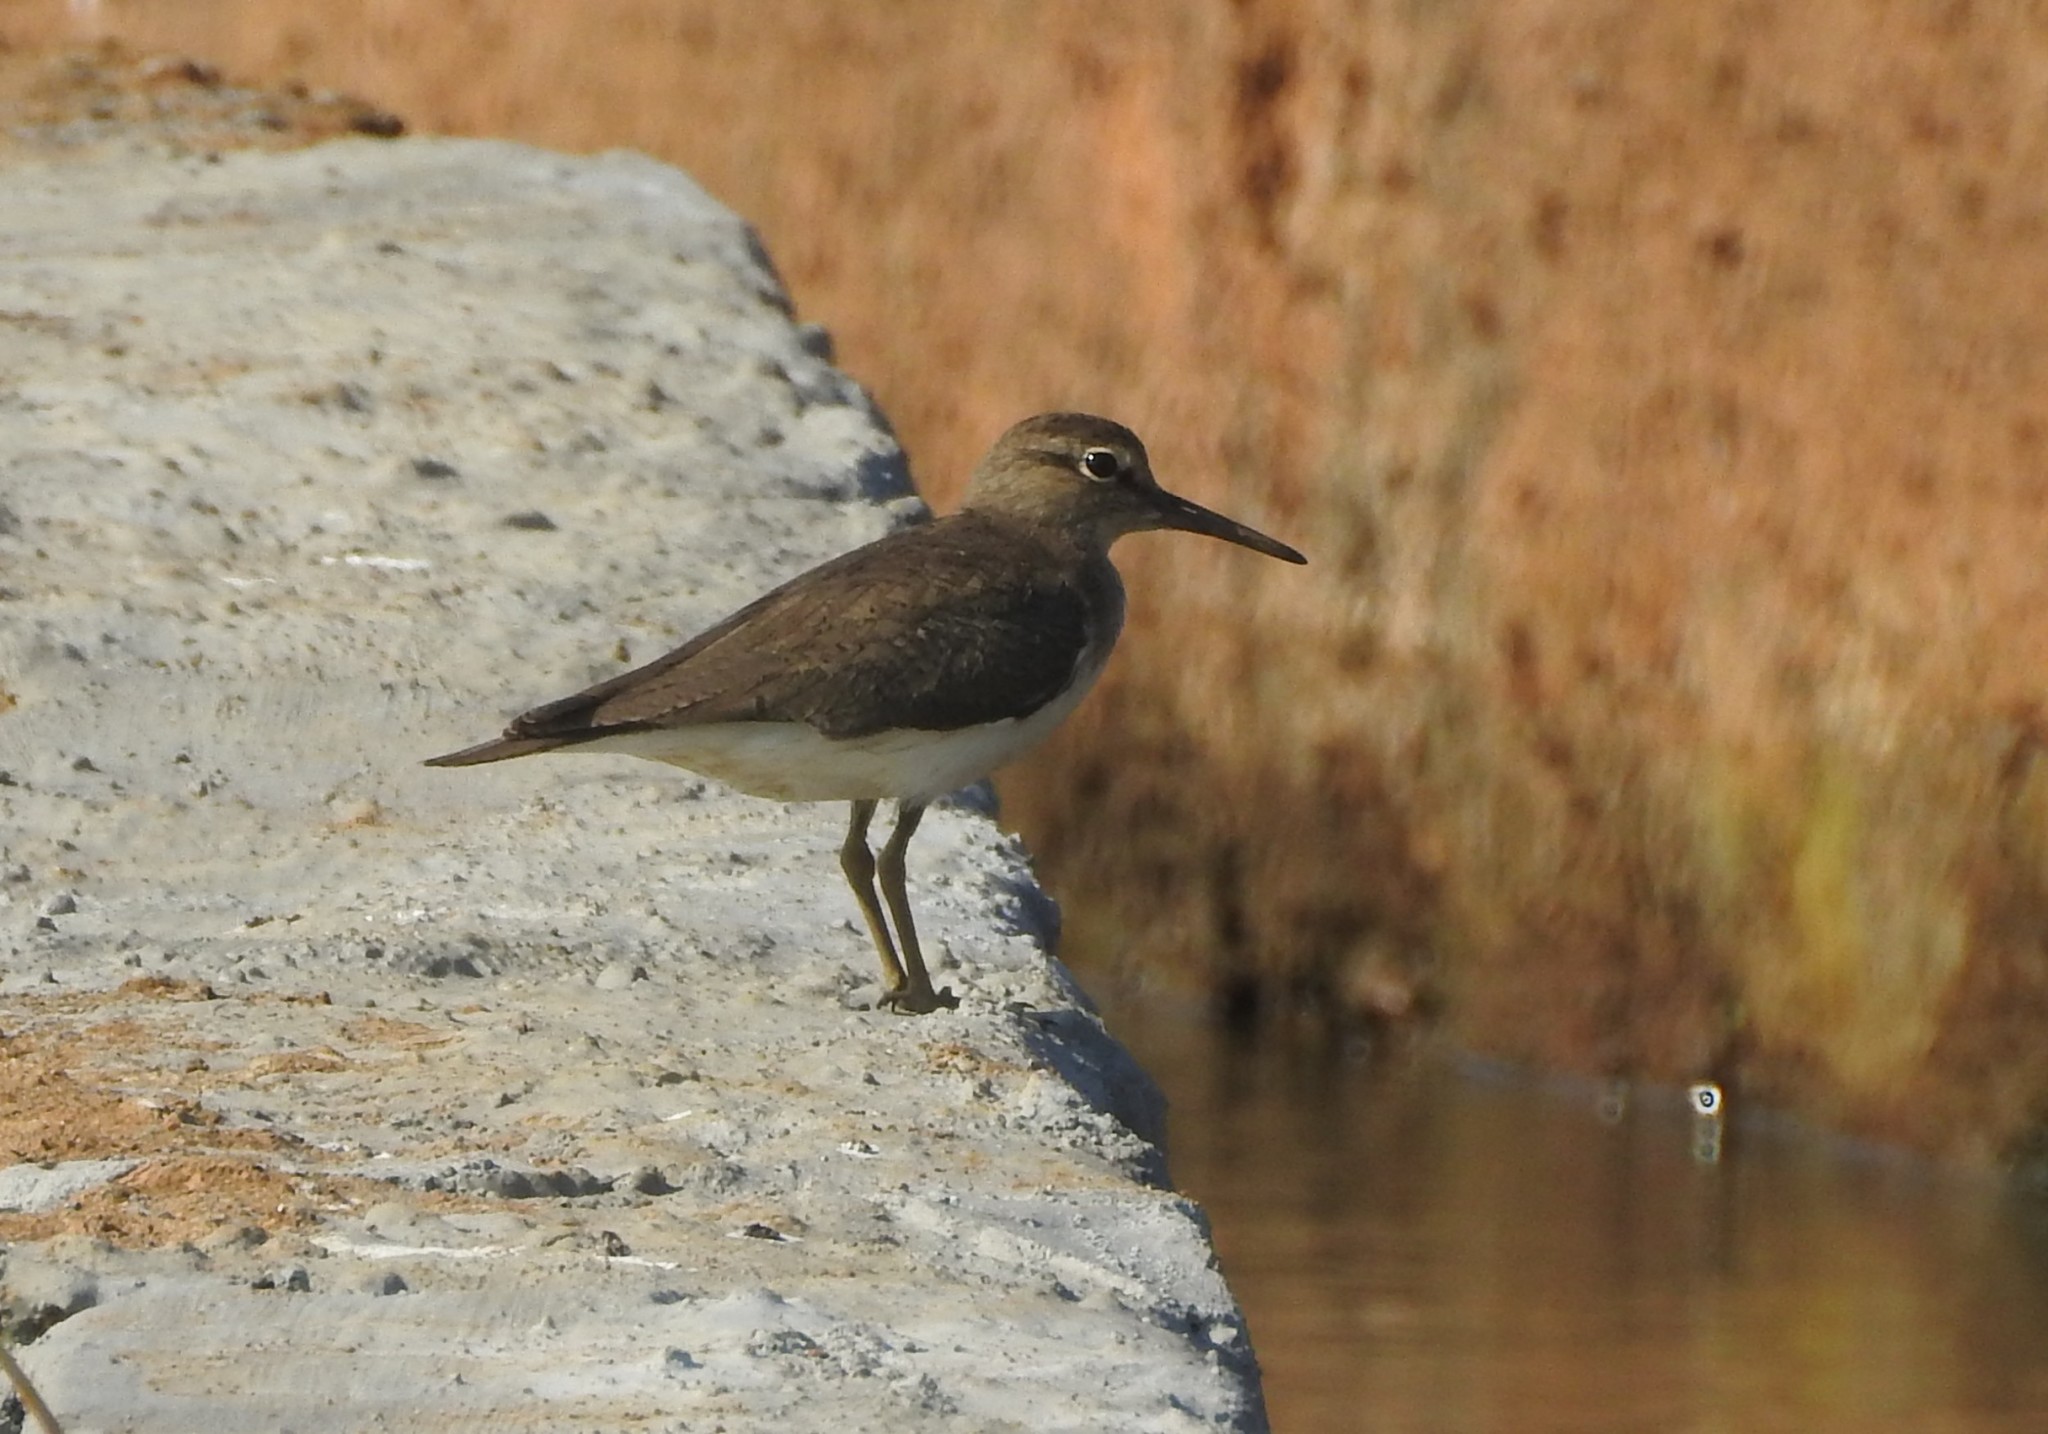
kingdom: Animalia
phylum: Chordata
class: Aves
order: Charadriiformes
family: Scolopacidae
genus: Actitis
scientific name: Actitis hypoleucos
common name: Common sandpiper
